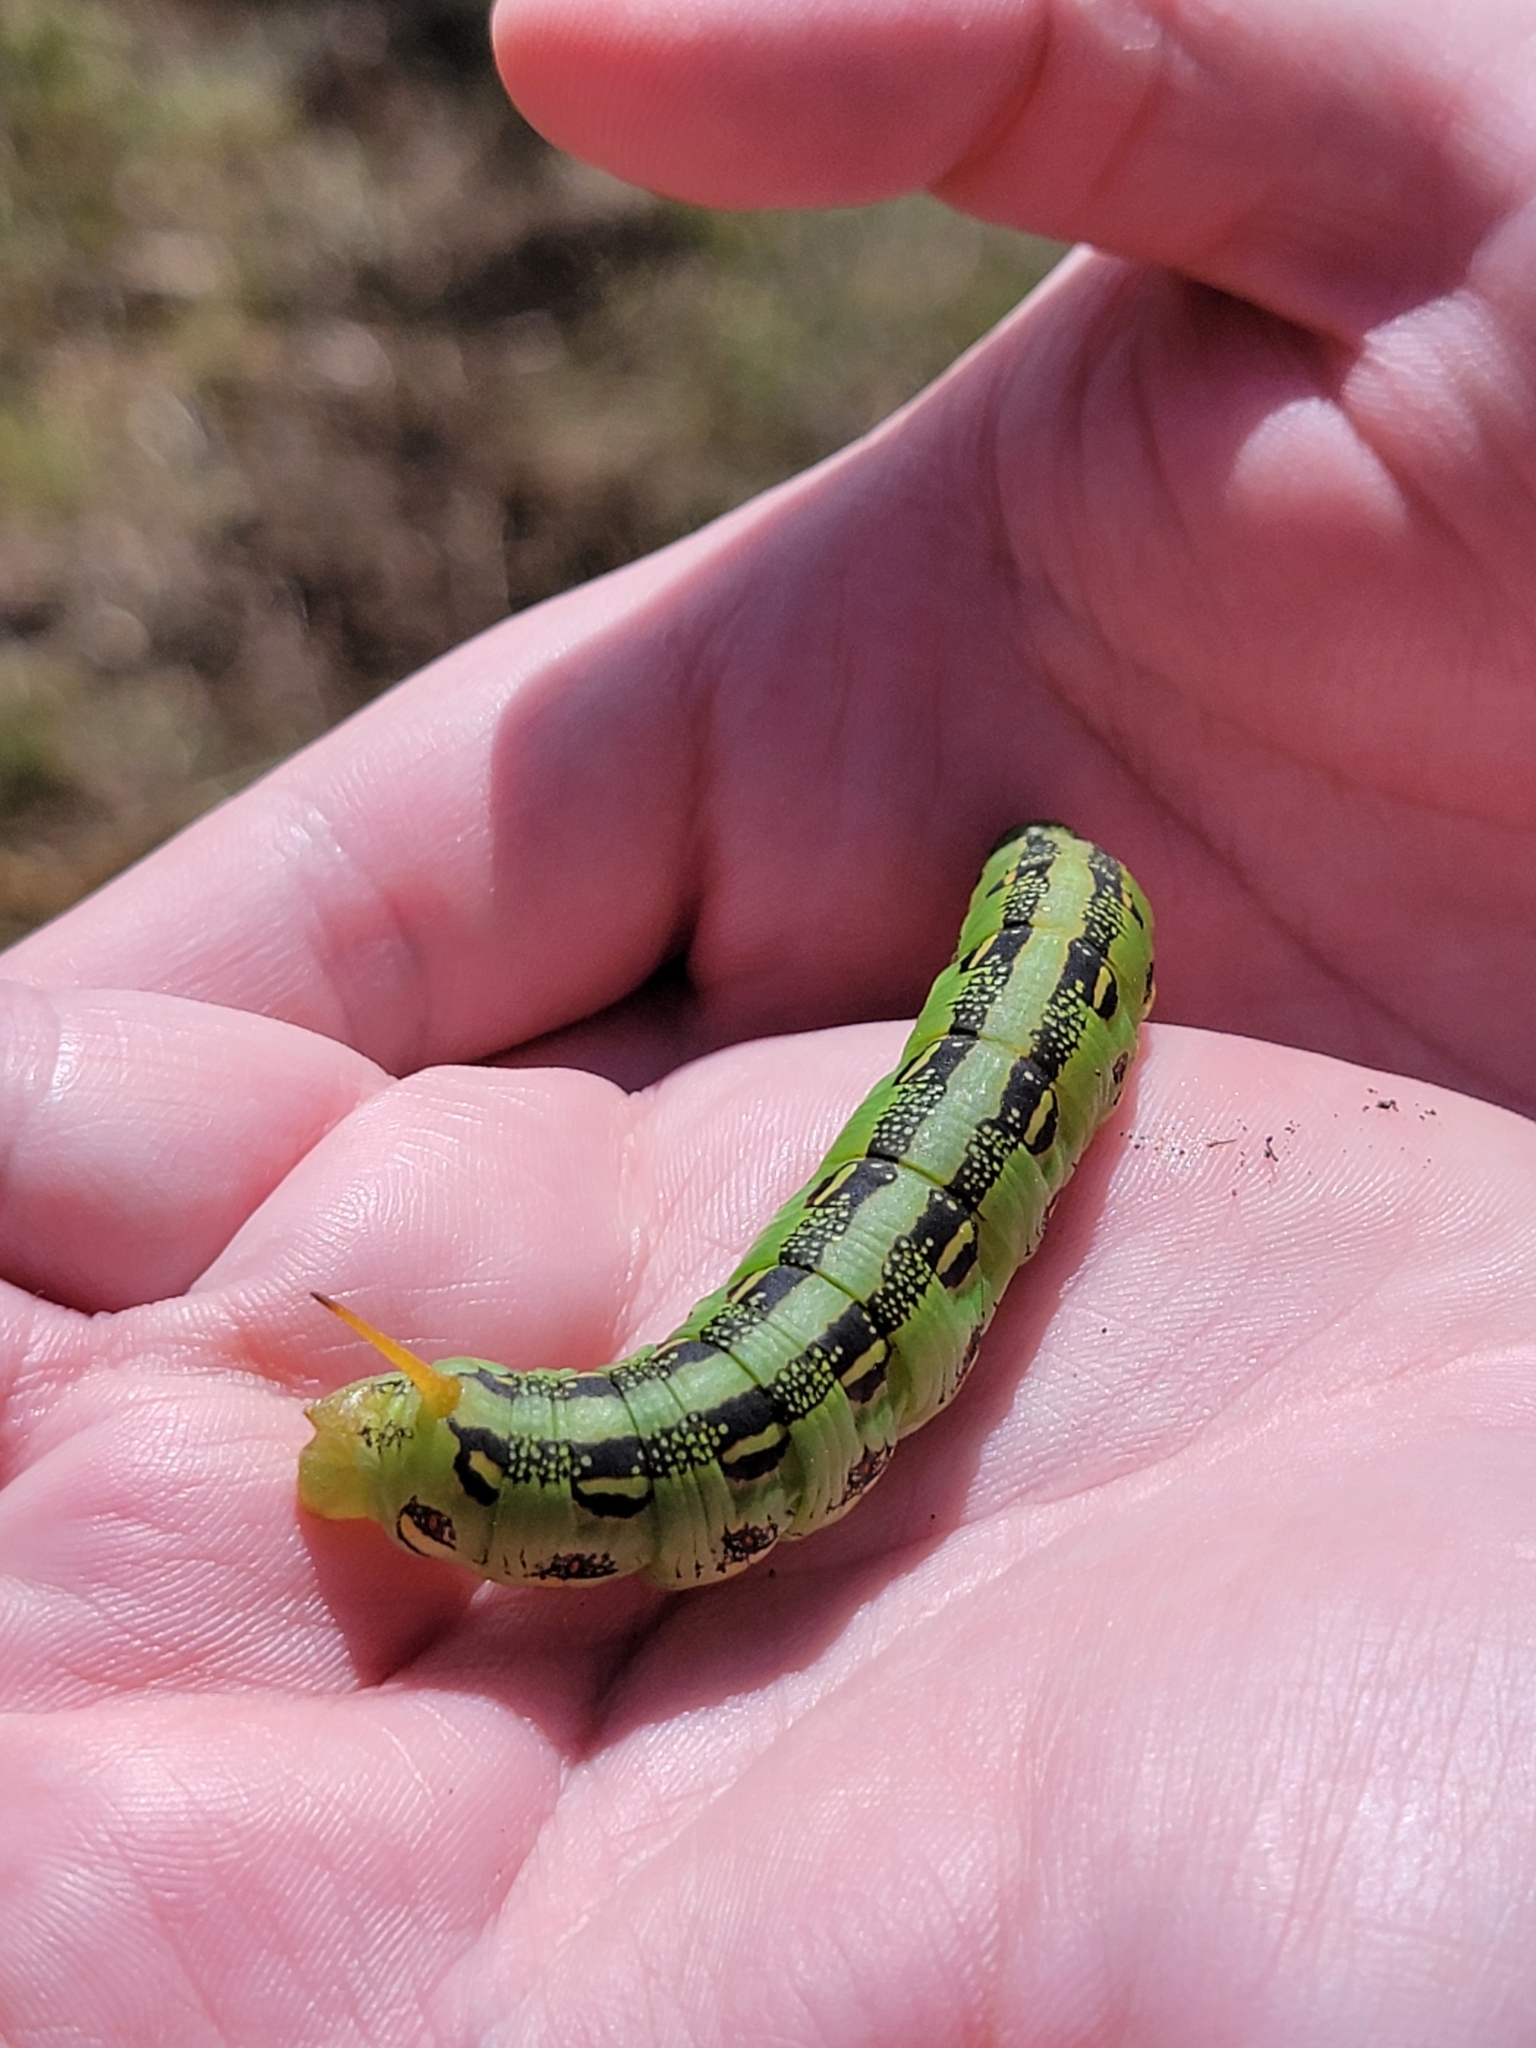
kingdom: Animalia
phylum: Arthropoda
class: Insecta
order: Lepidoptera
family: Sphingidae
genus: Hyles
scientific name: Hyles lineata
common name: White-lined sphinx
